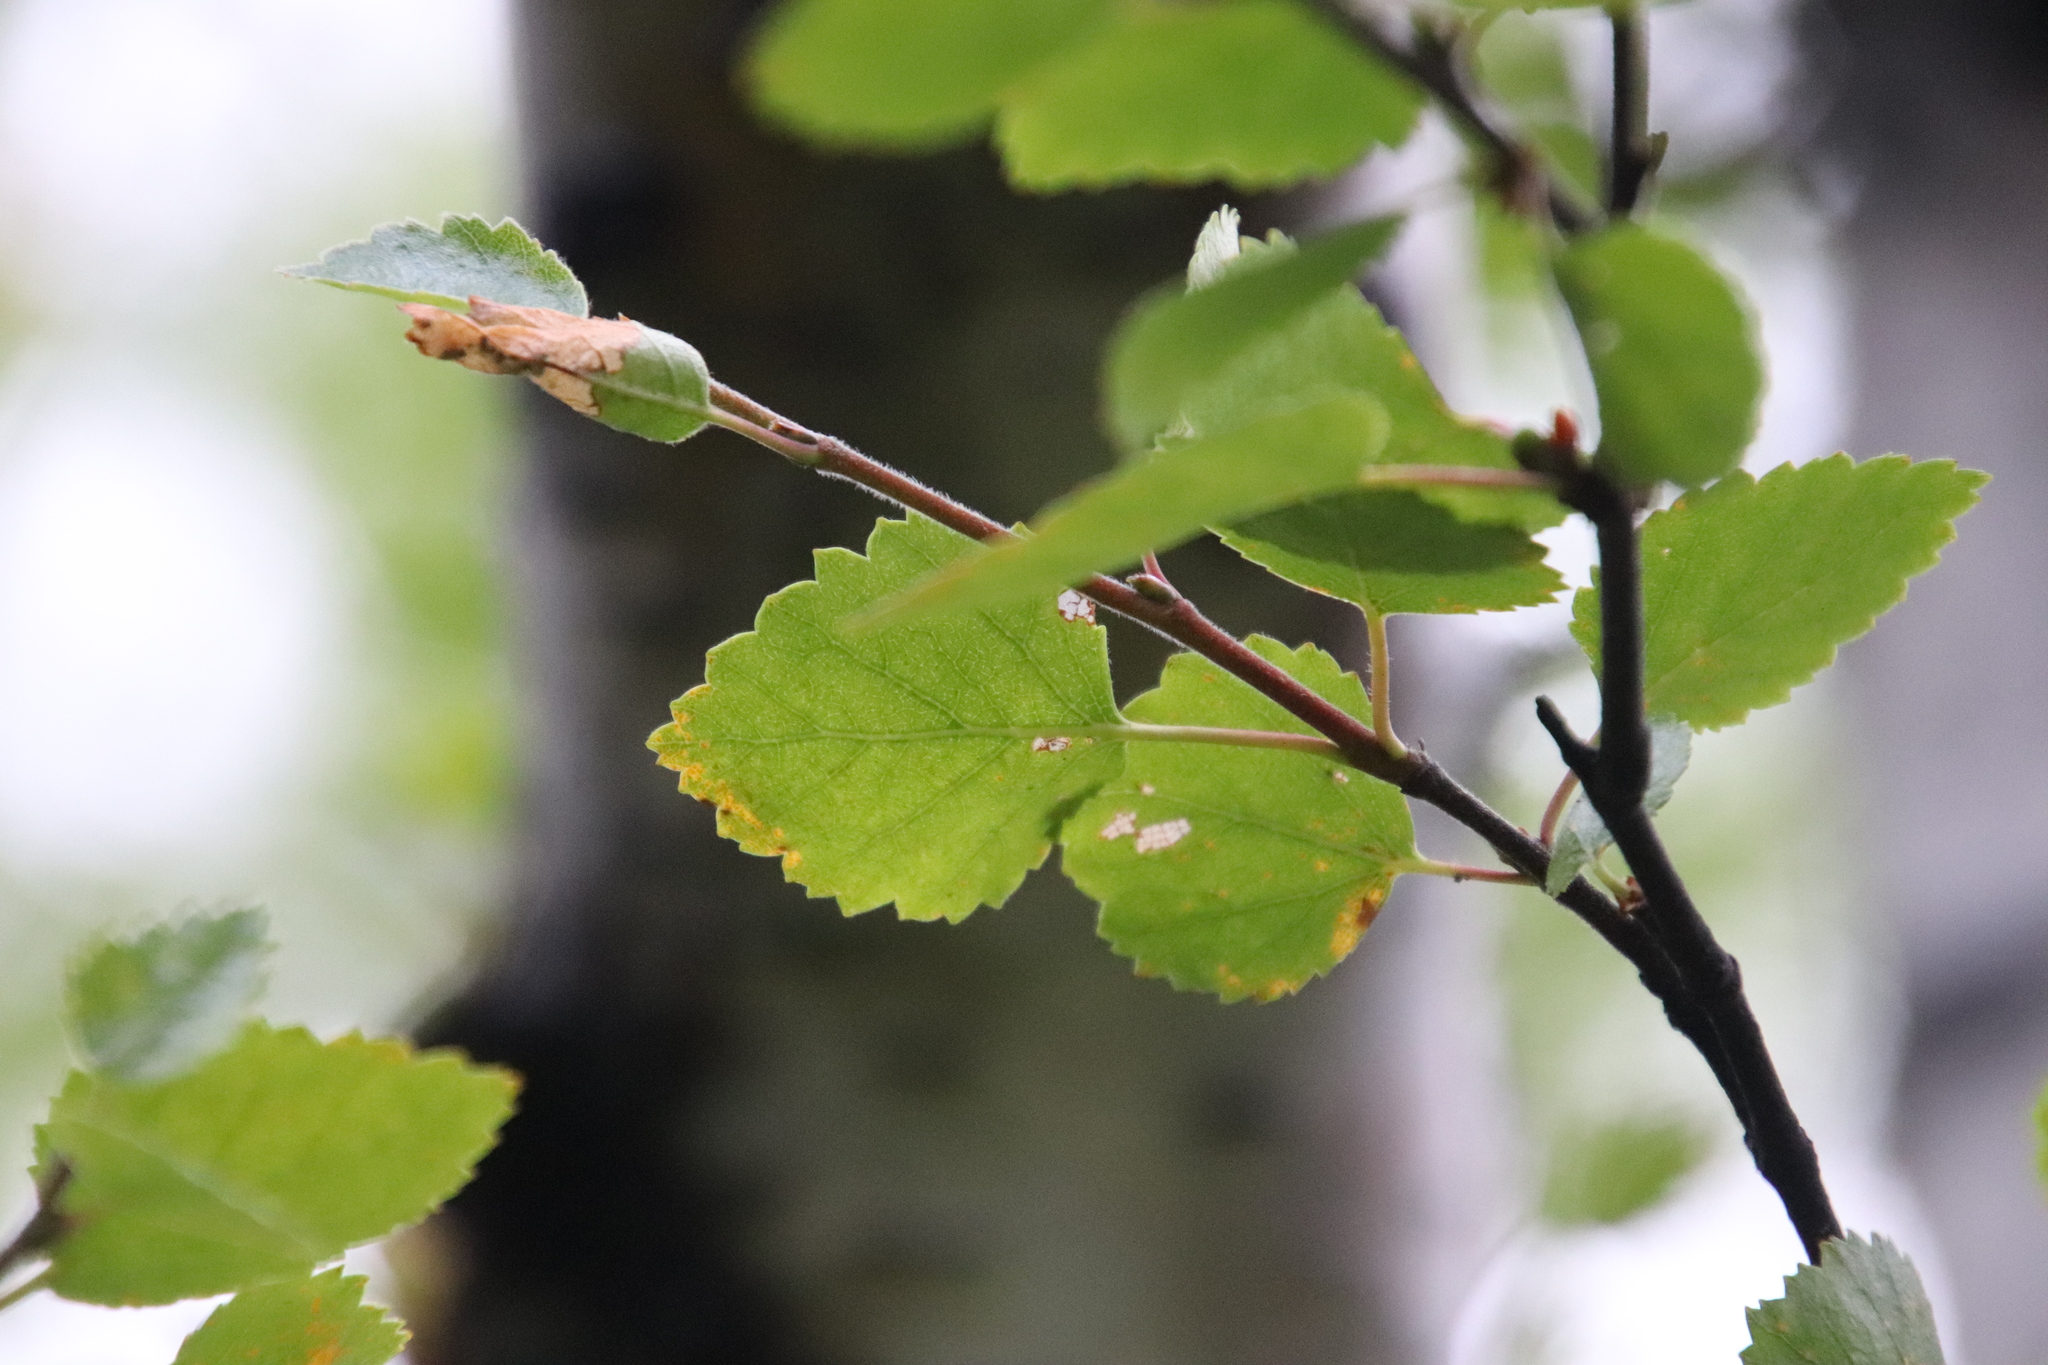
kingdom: Plantae
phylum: Tracheophyta
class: Magnoliopsida
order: Fagales
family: Betulaceae
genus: Betula
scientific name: Betula pubescens
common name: Downy birch
